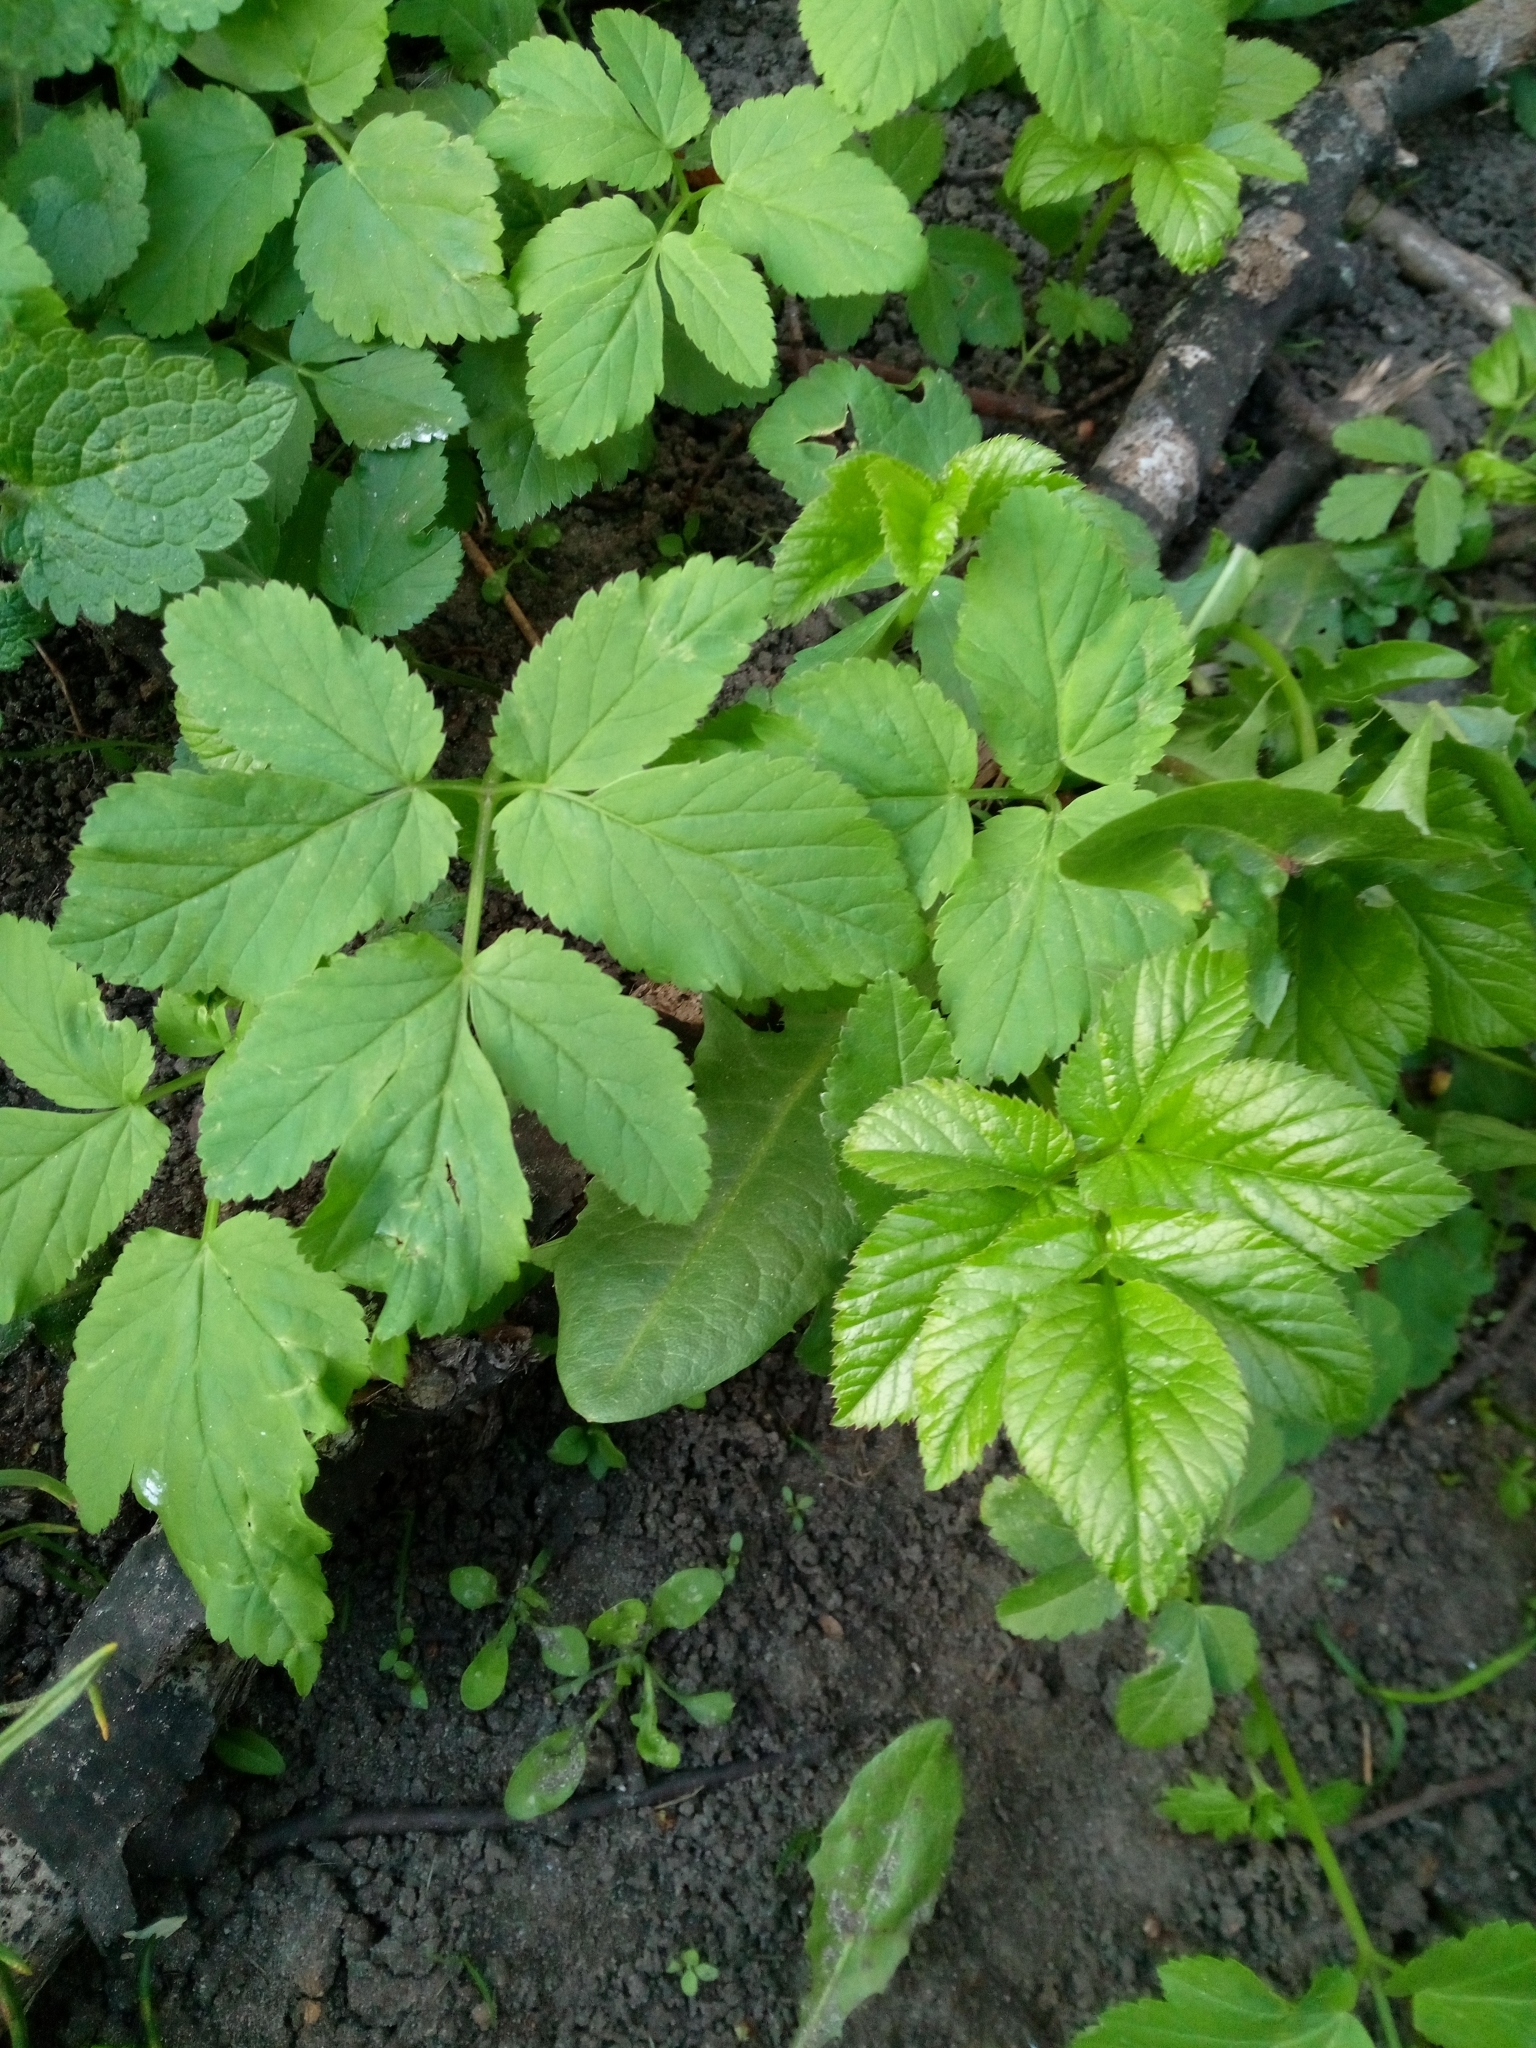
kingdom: Plantae
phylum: Tracheophyta
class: Magnoliopsida
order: Apiales
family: Apiaceae
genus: Aegopodium
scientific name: Aegopodium podagraria
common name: Ground-elder
